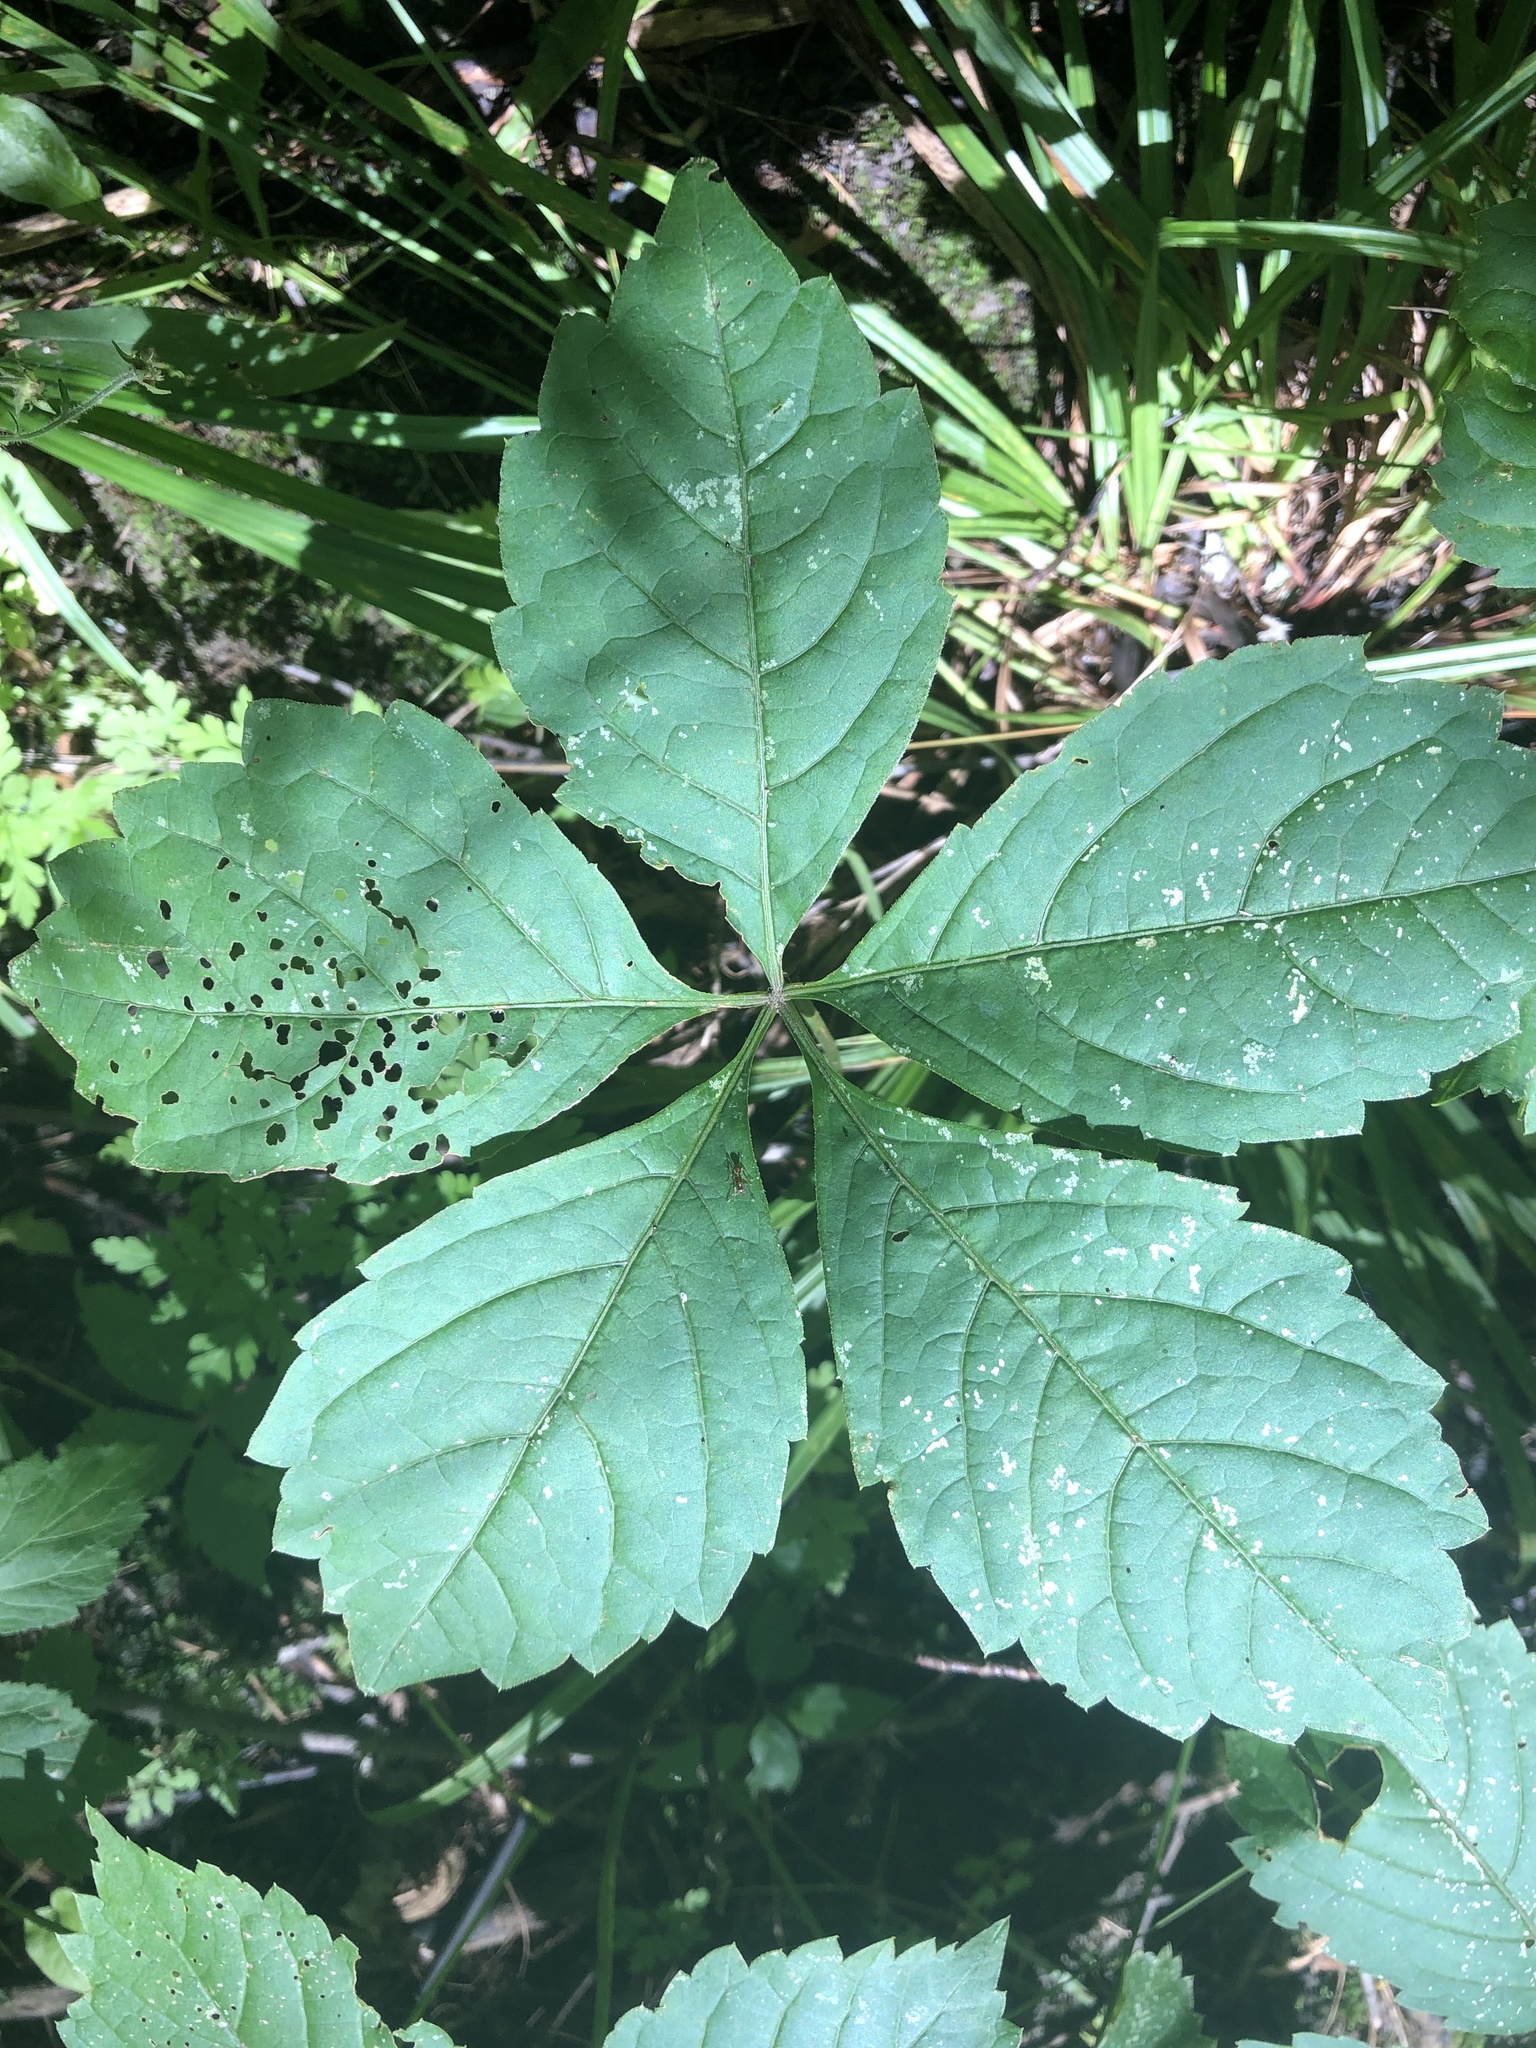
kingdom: Plantae
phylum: Tracheophyta
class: Magnoliopsida
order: Vitales
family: Vitaceae
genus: Parthenocissus
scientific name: Parthenocissus quinquefolia
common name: Virginia-creeper
